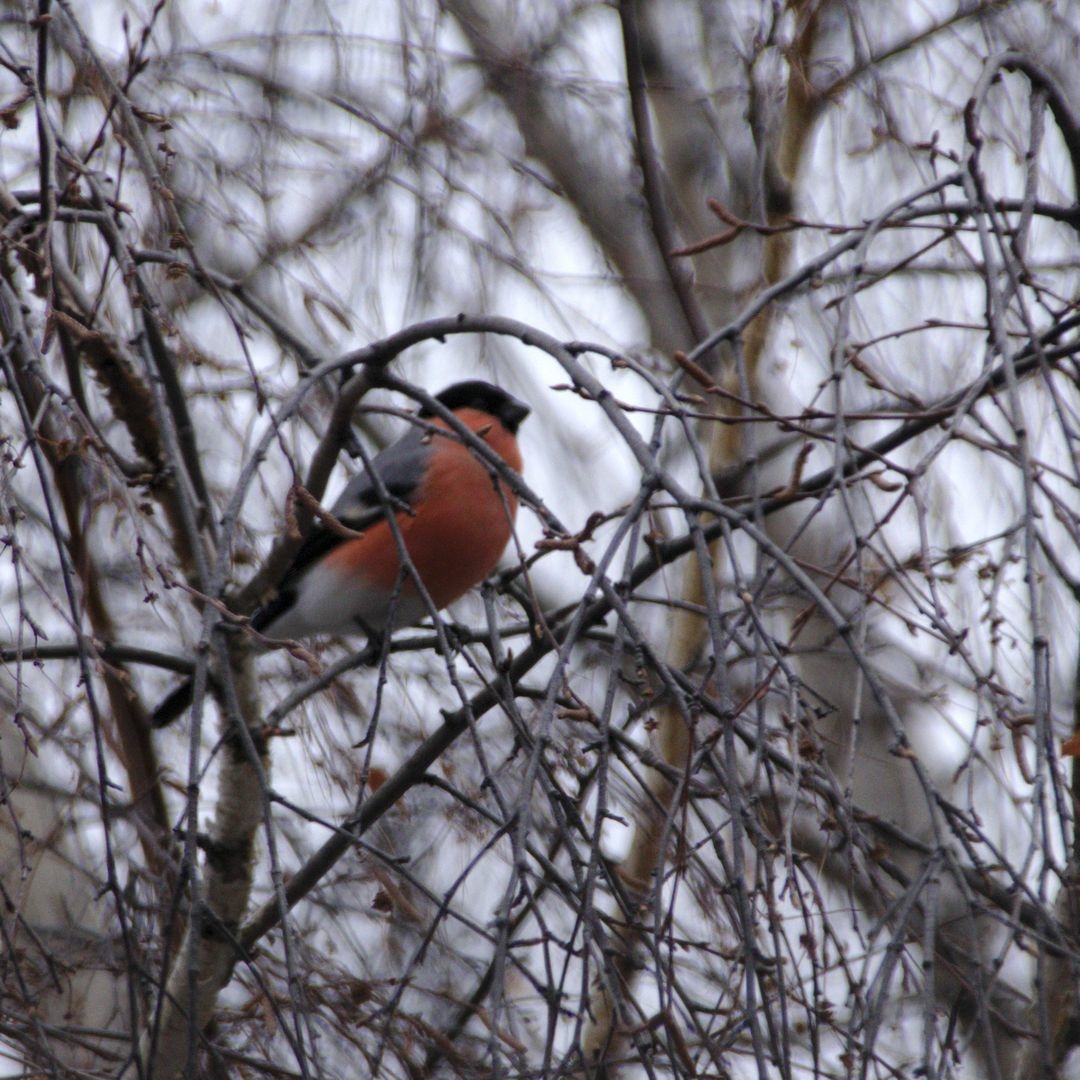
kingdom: Animalia
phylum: Chordata
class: Aves
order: Passeriformes
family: Fringillidae
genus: Pyrrhula
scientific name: Pyrrhula pyrrhula
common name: Eurasian bullfinch
